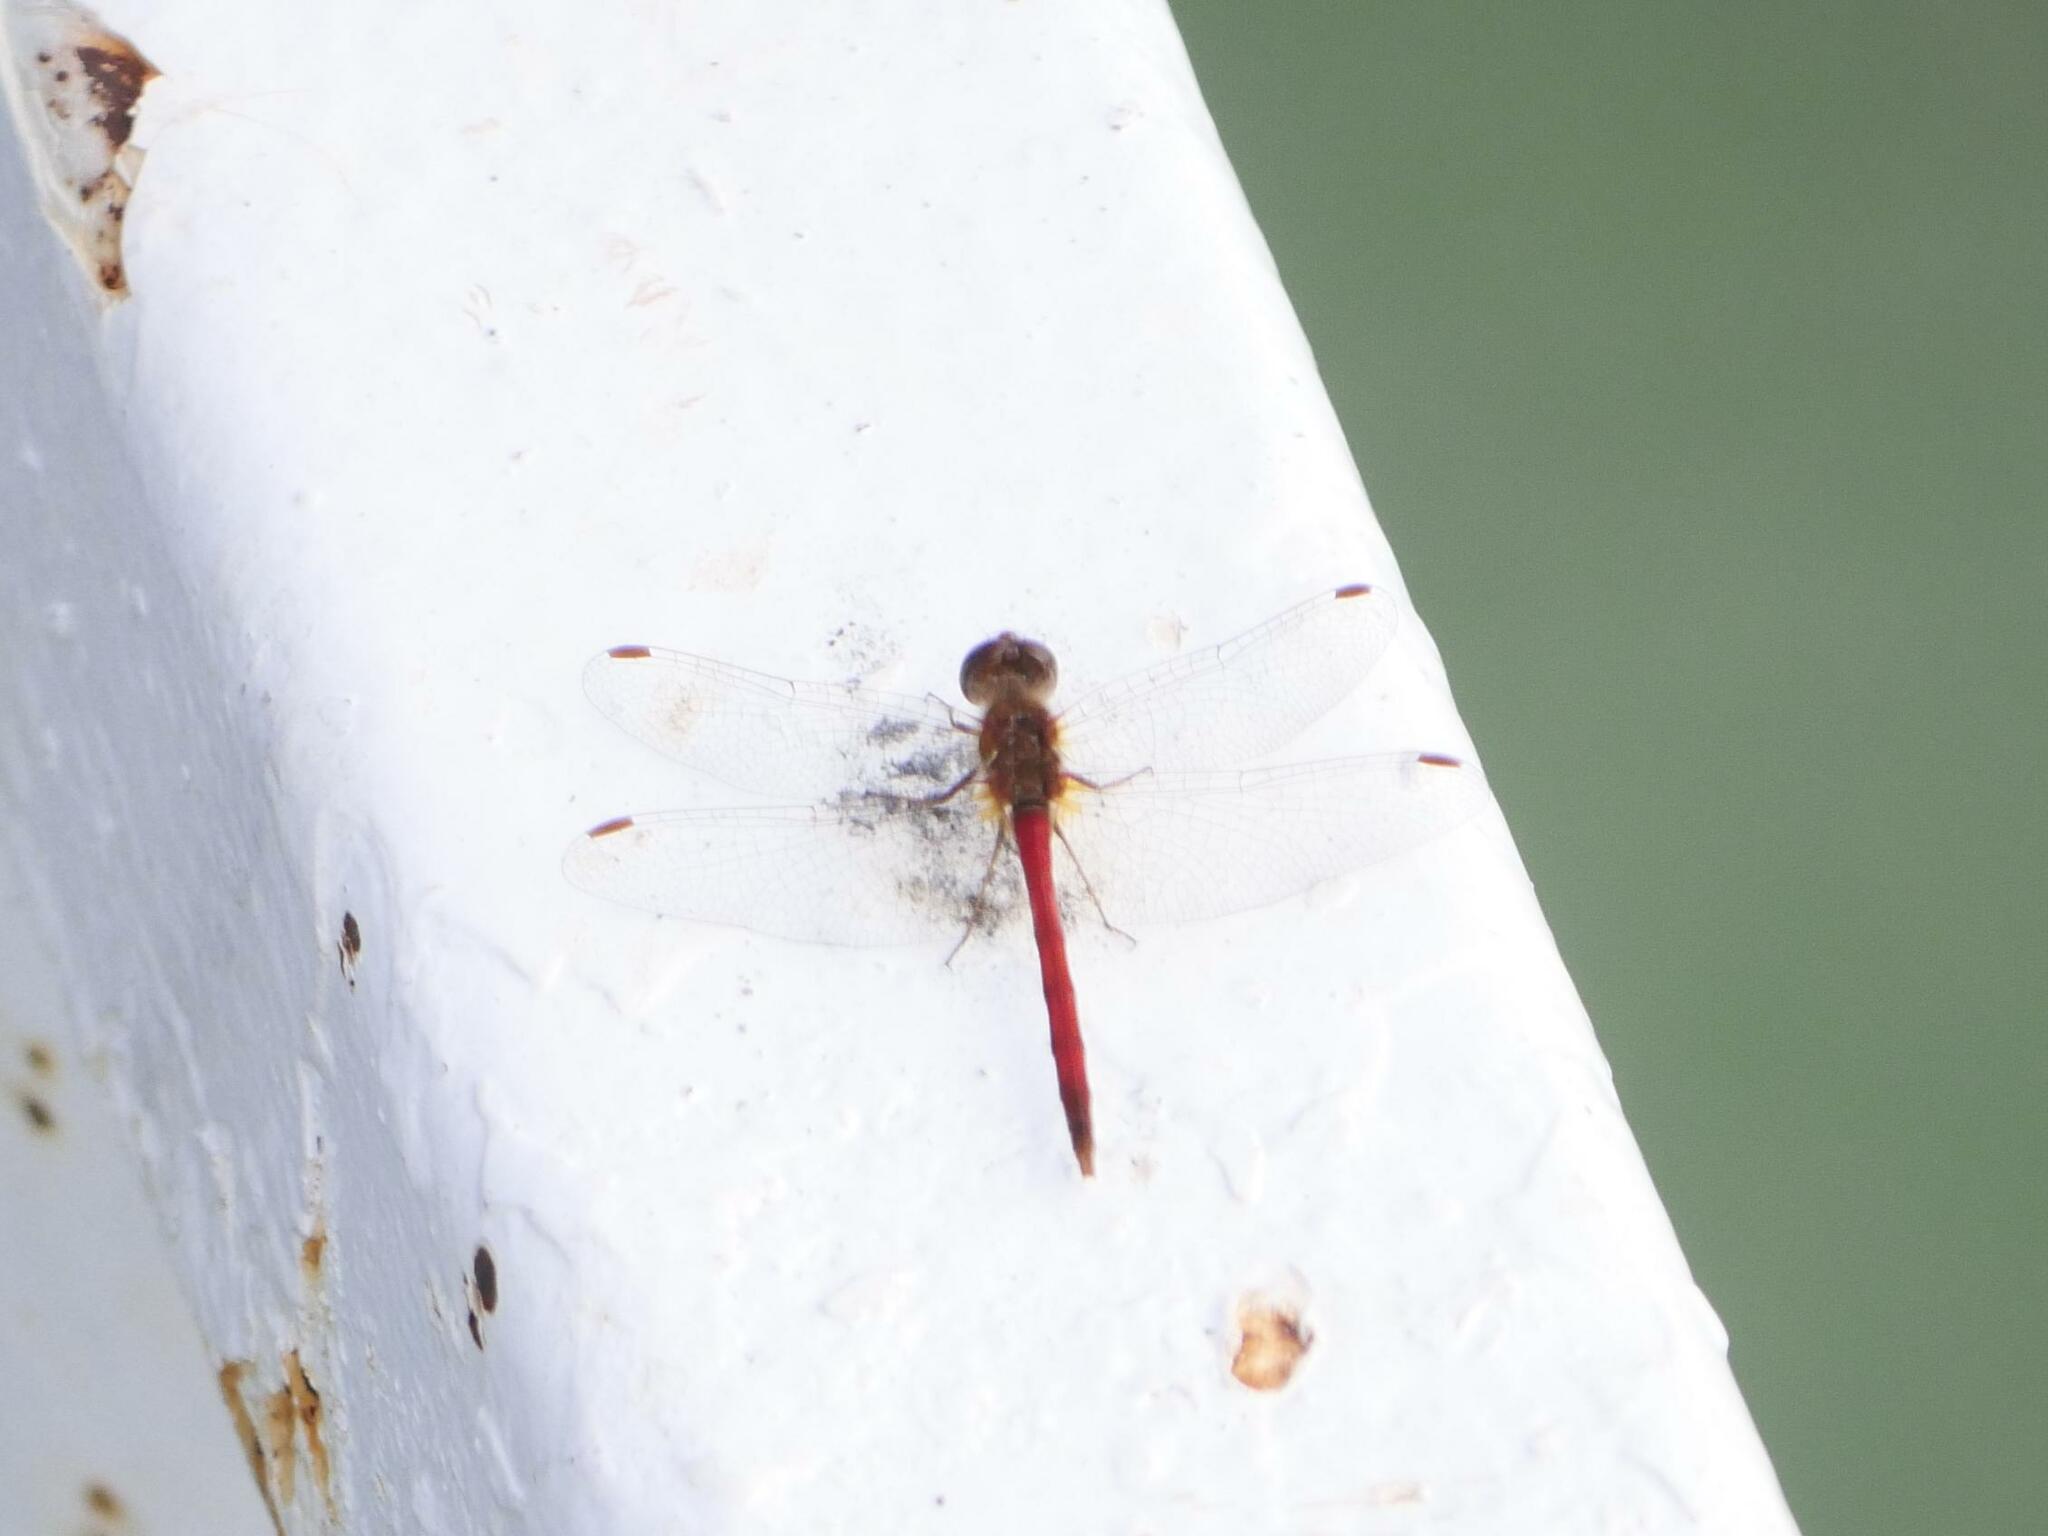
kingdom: Animalia
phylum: Arthropoda
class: Insecta
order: Odonata
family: Libellulidae
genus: Sympetrum
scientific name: Sympetrum vicinum
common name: Autumn meadowhawk
